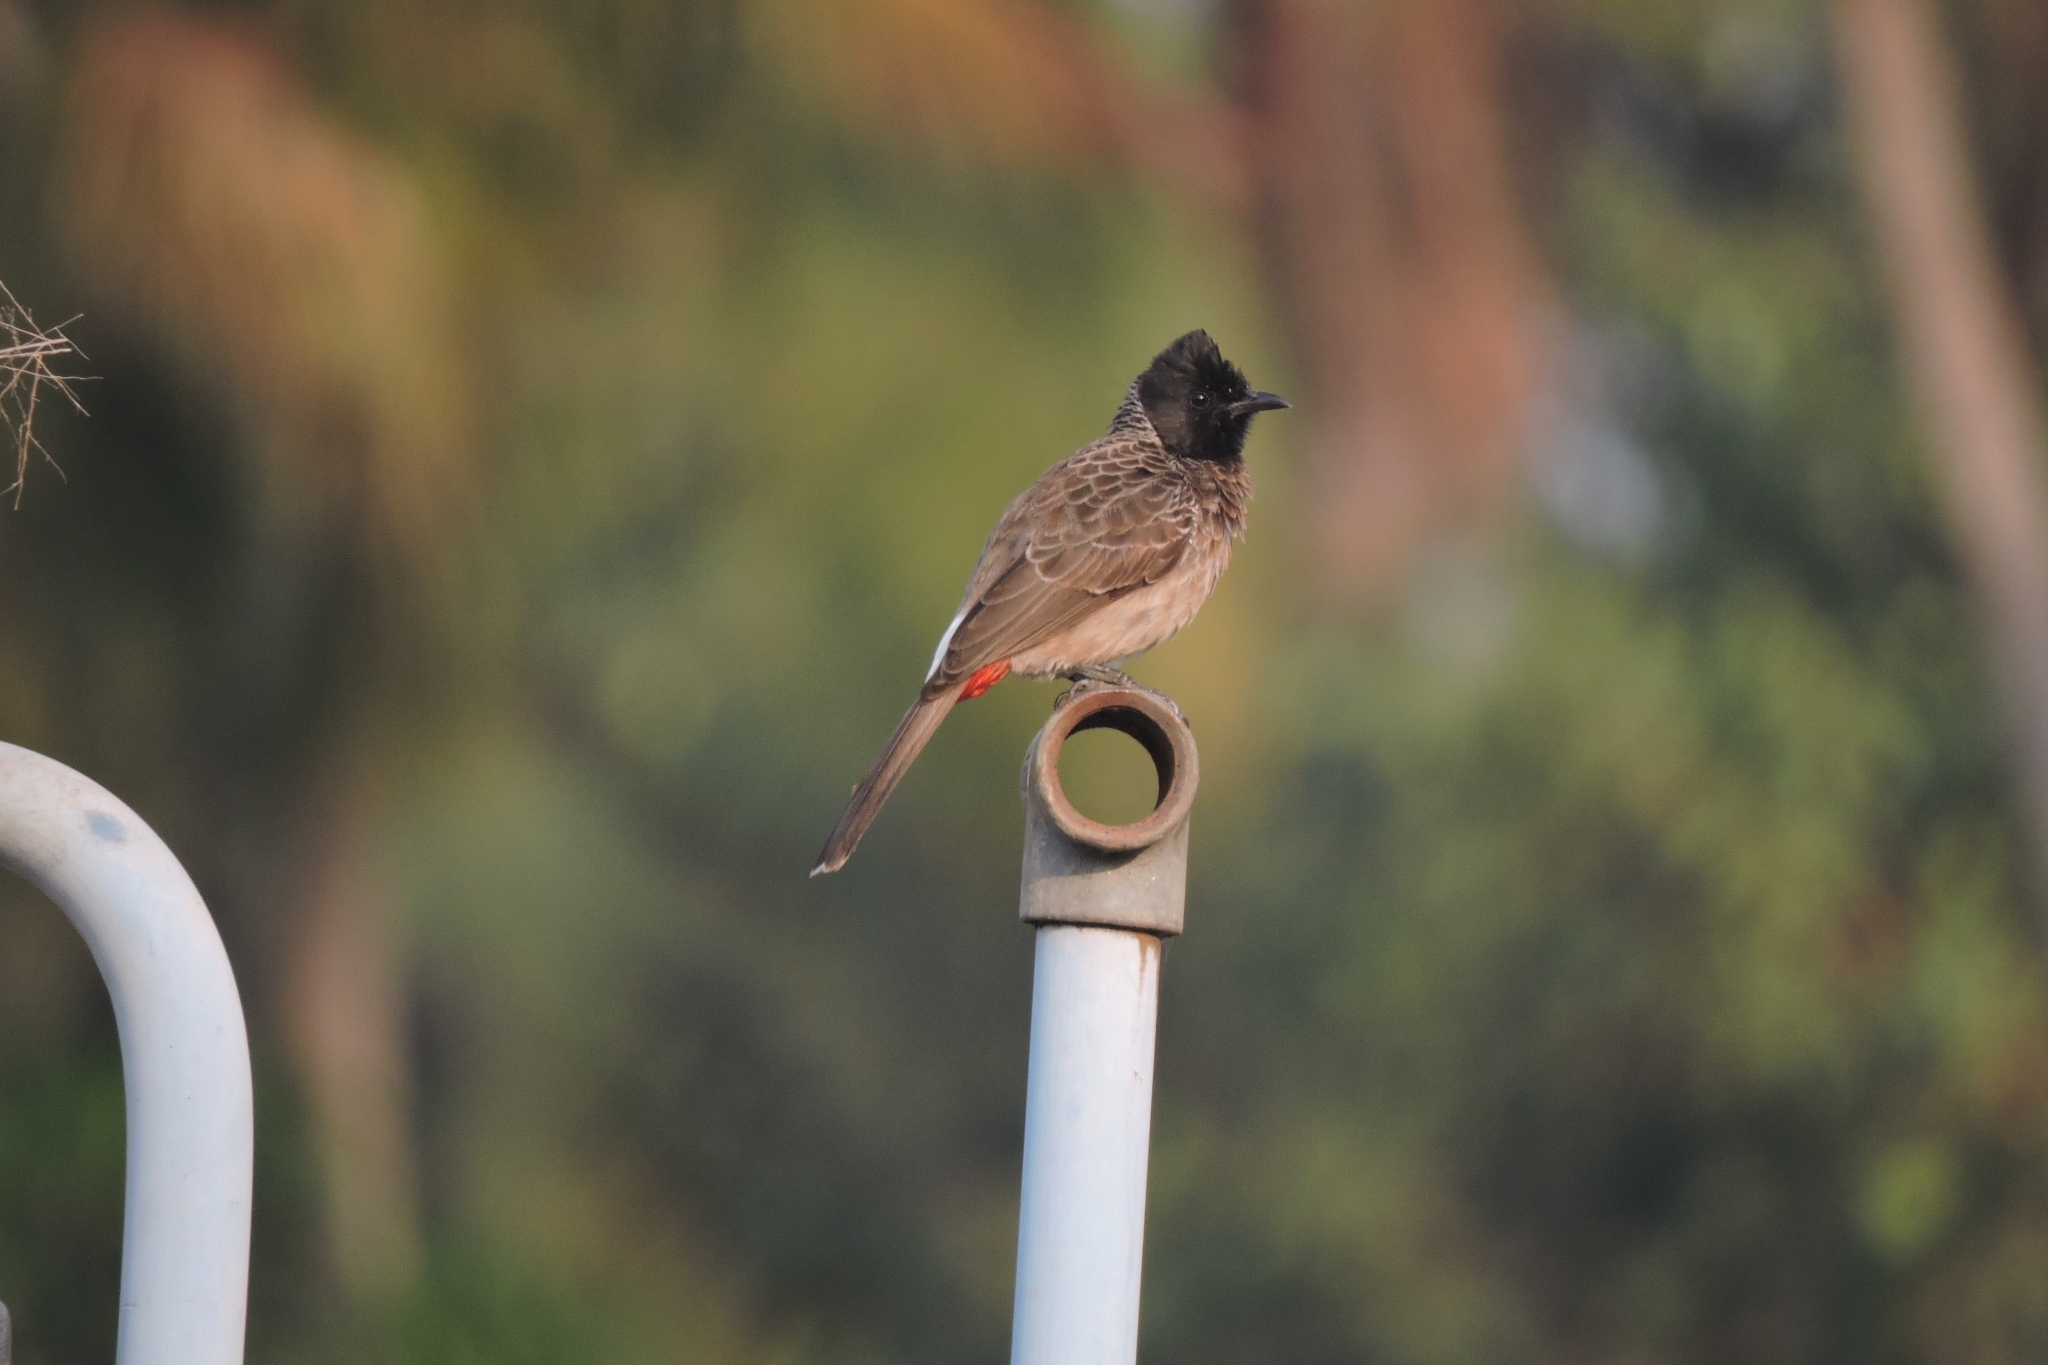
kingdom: Animalia
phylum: Chordata
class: Aves
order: Passeriformes
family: Pycnonotidae
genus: Pycnonotus
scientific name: Pycnonotus cafer
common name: Red-vented bulbul
